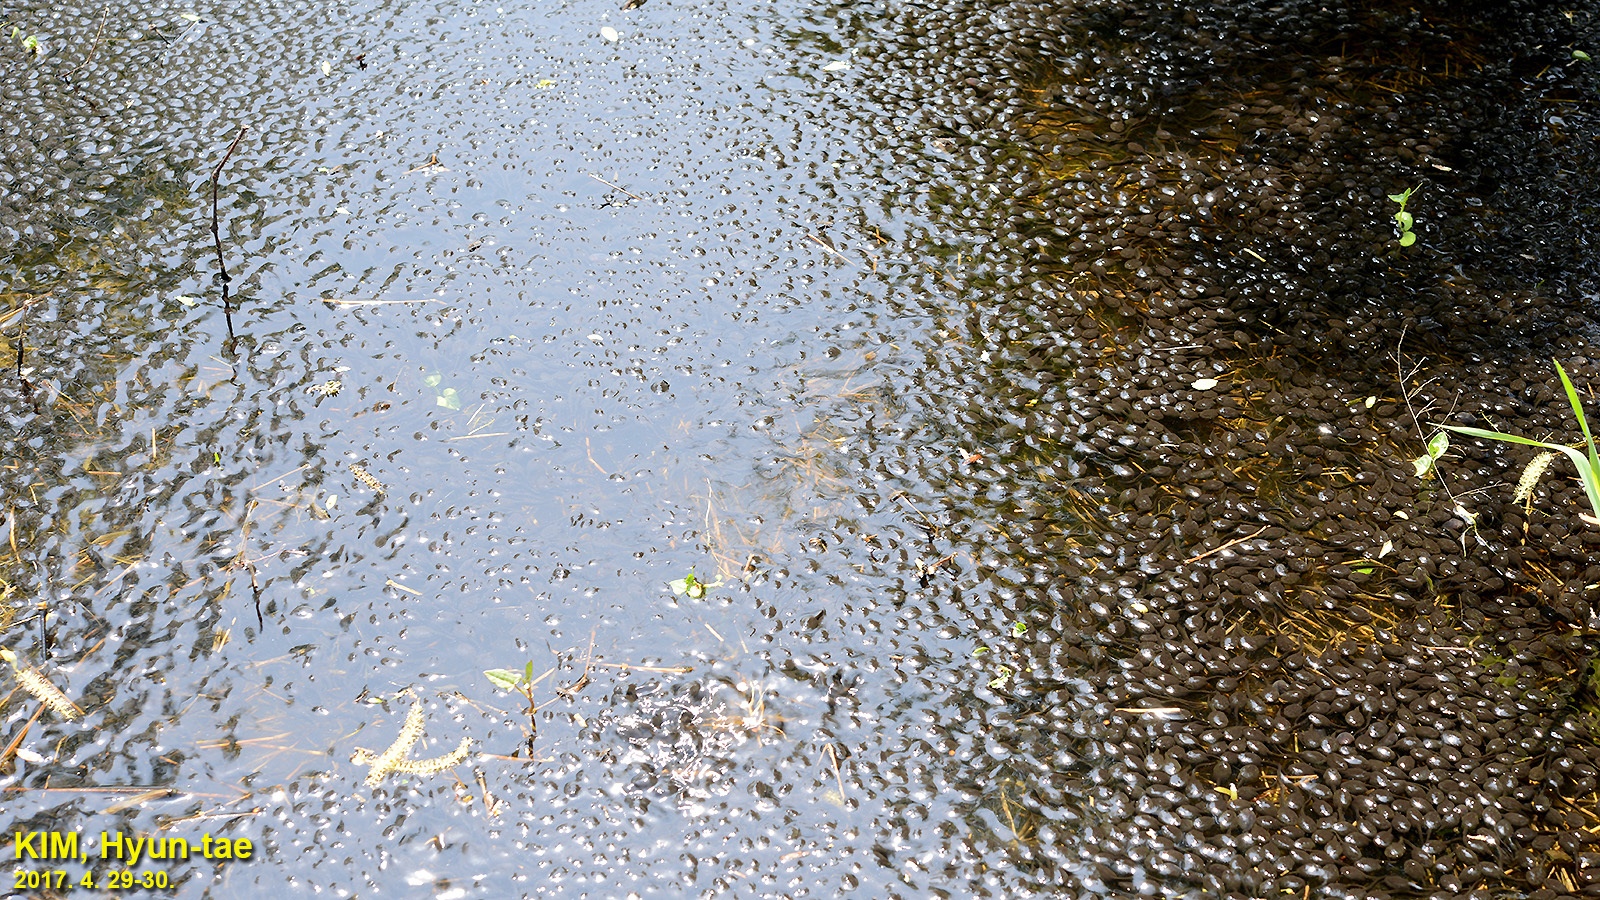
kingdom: Animalia
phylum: Chordata
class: Amphibia
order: Anura
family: Bufonidae
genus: Bufo
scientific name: Bufo gargarizans
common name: Asiatic toad
